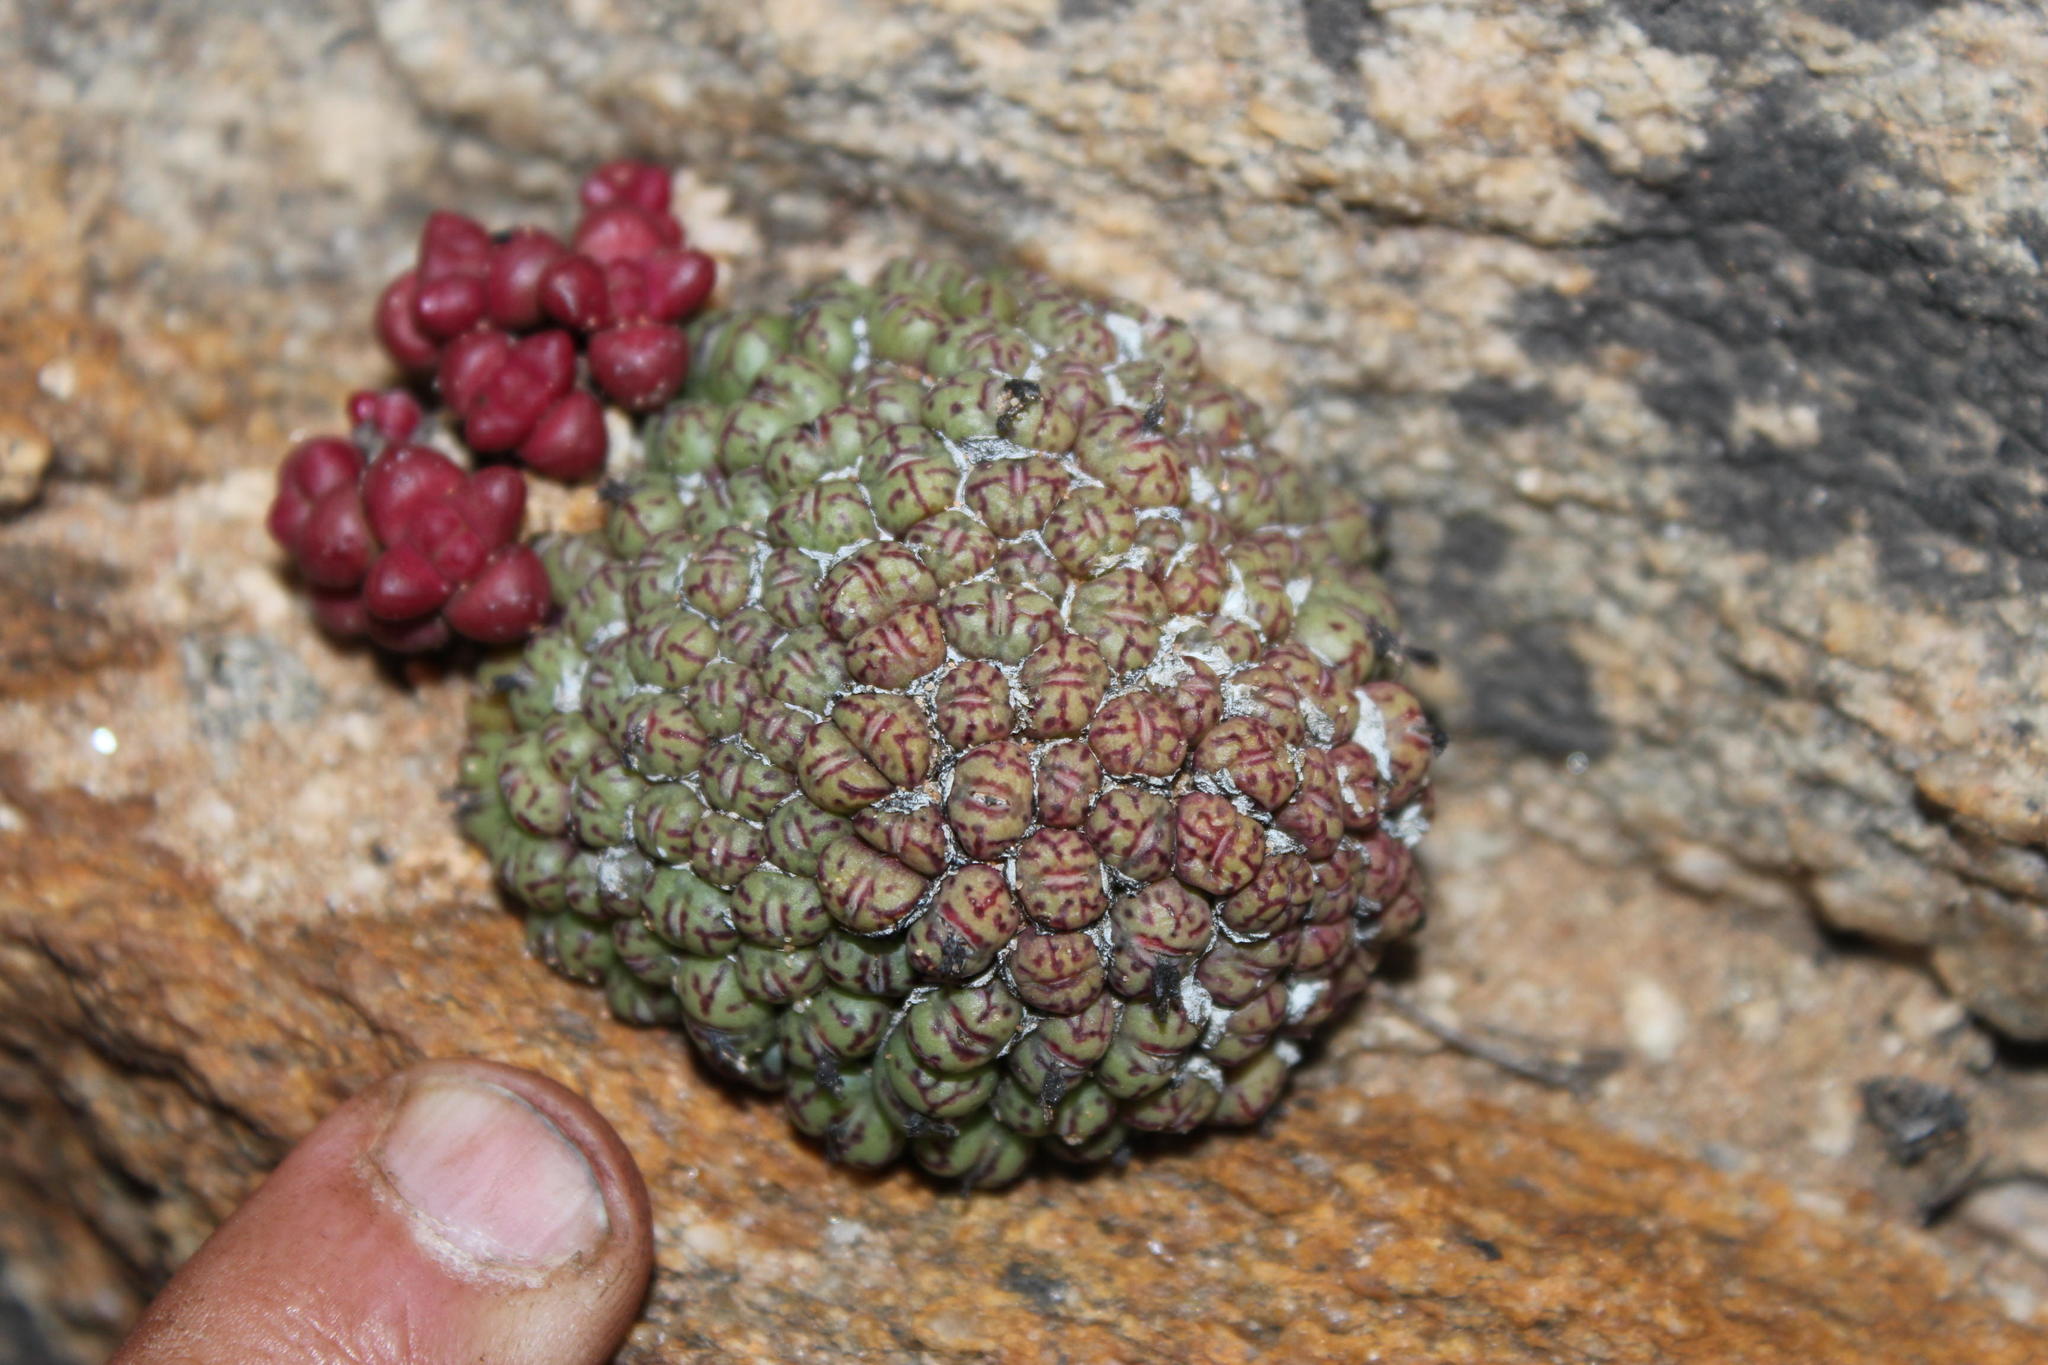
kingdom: Plantae
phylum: Tracheophyta
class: Magnoliopsida
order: Caryophyllales
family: Aizoaceae
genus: Conophytum
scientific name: Conophytum uviforme
